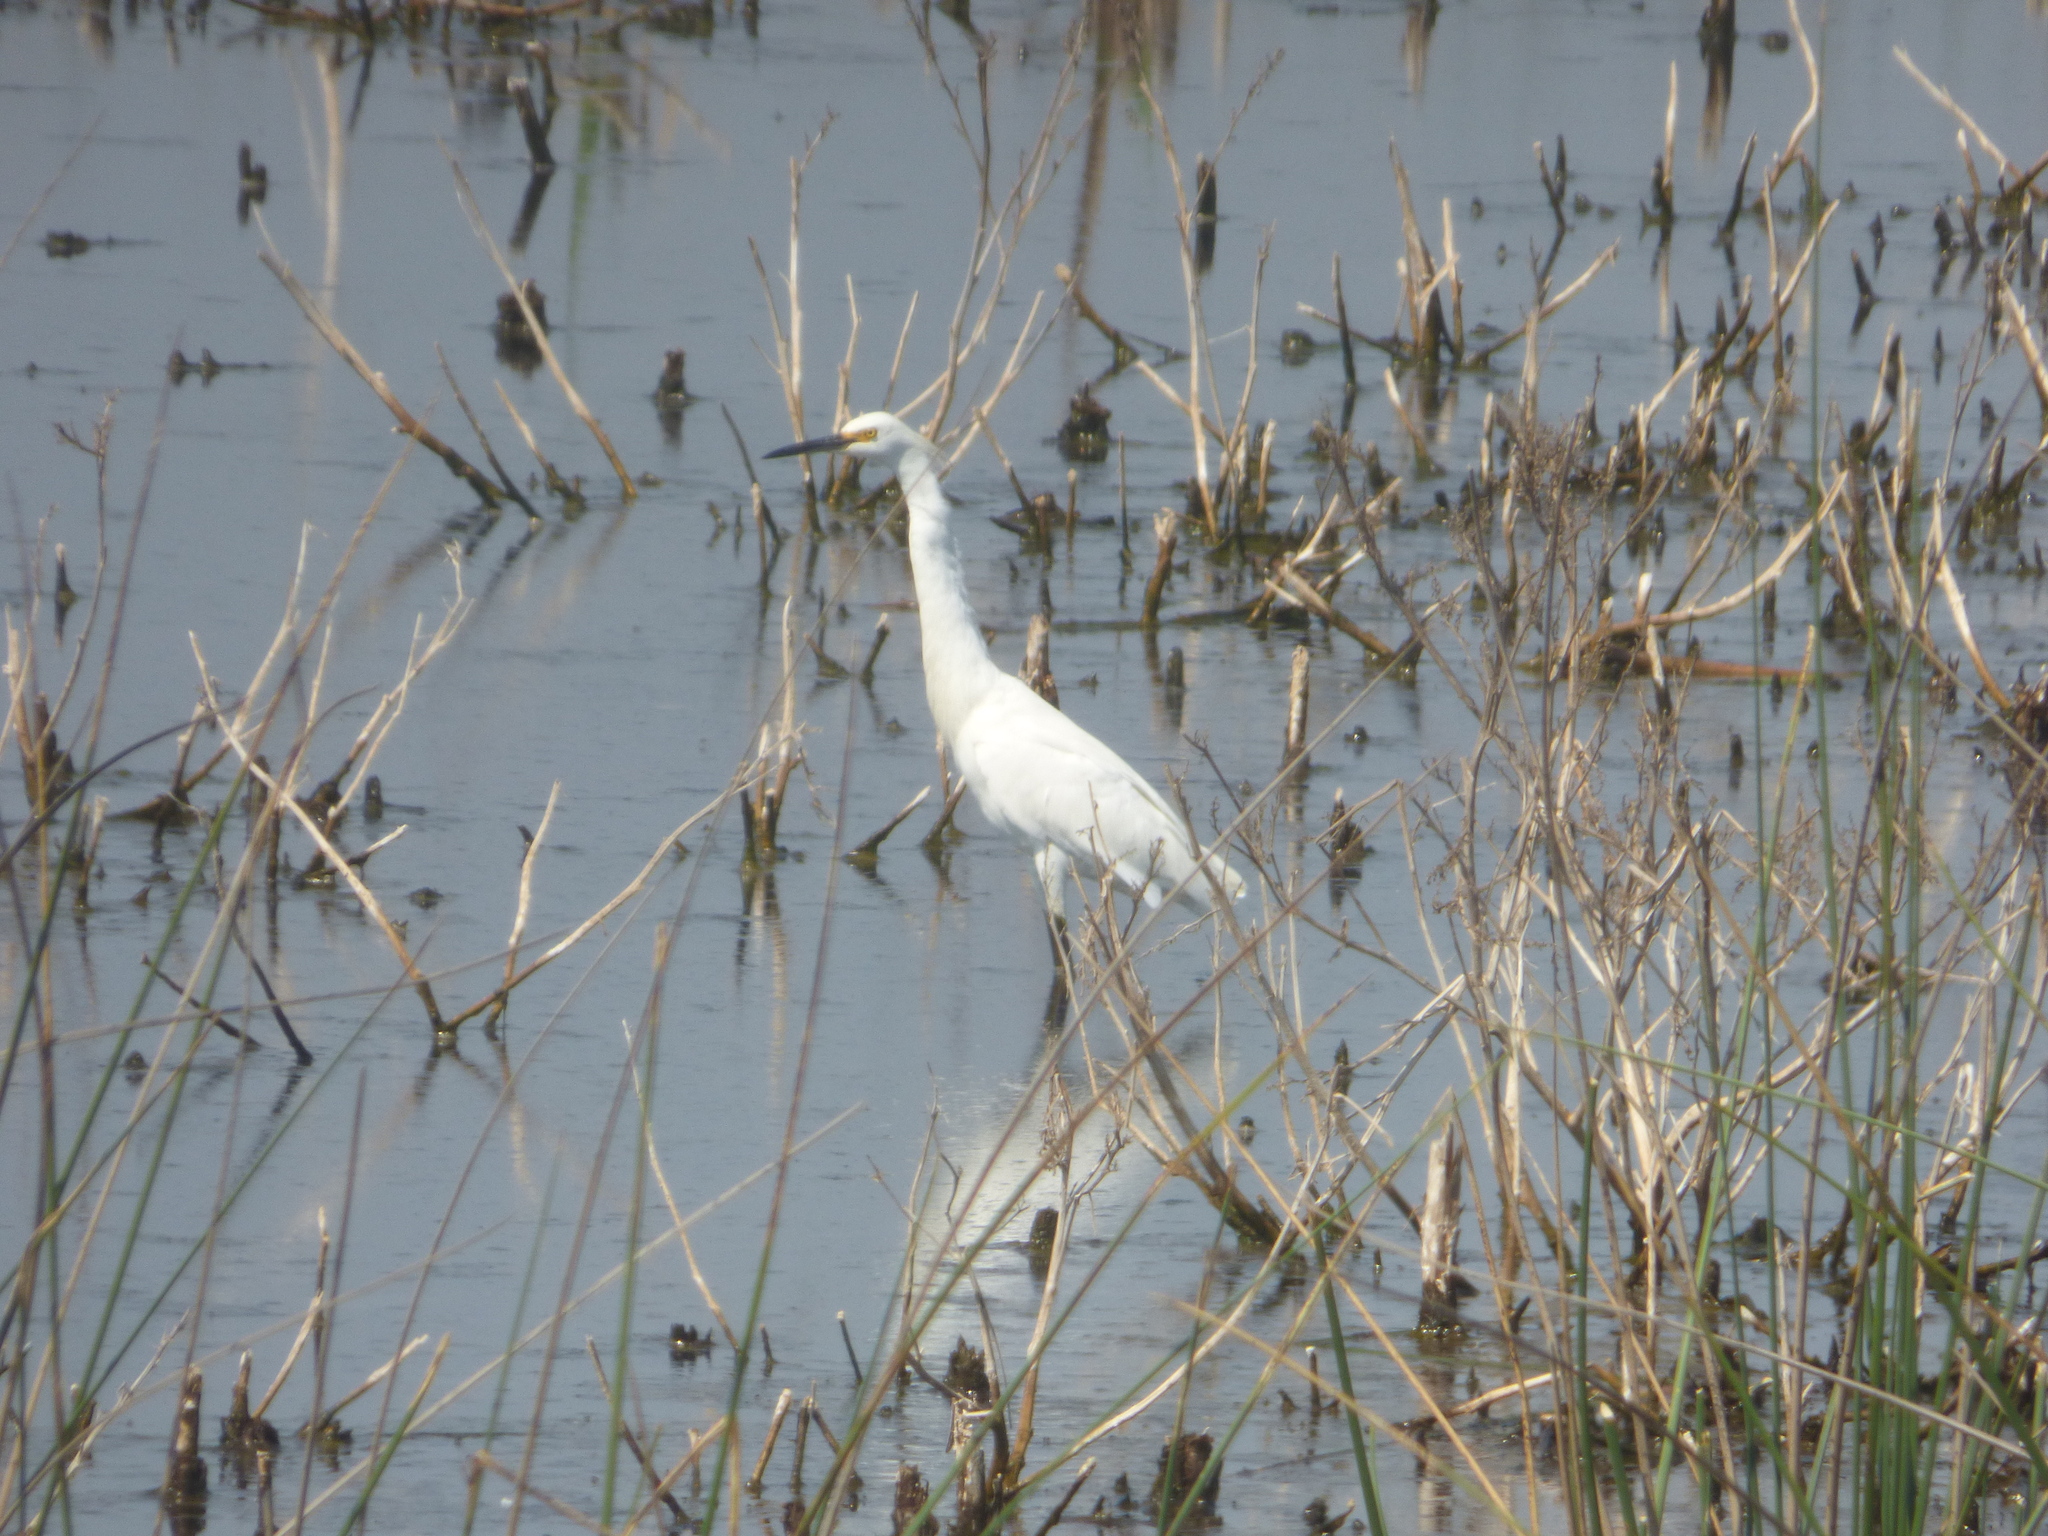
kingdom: Animalia
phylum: Chordata
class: Aves
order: Pelecaniformes
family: Ardeidae
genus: Egretta
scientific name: Egretta thula
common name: Snowy egret
